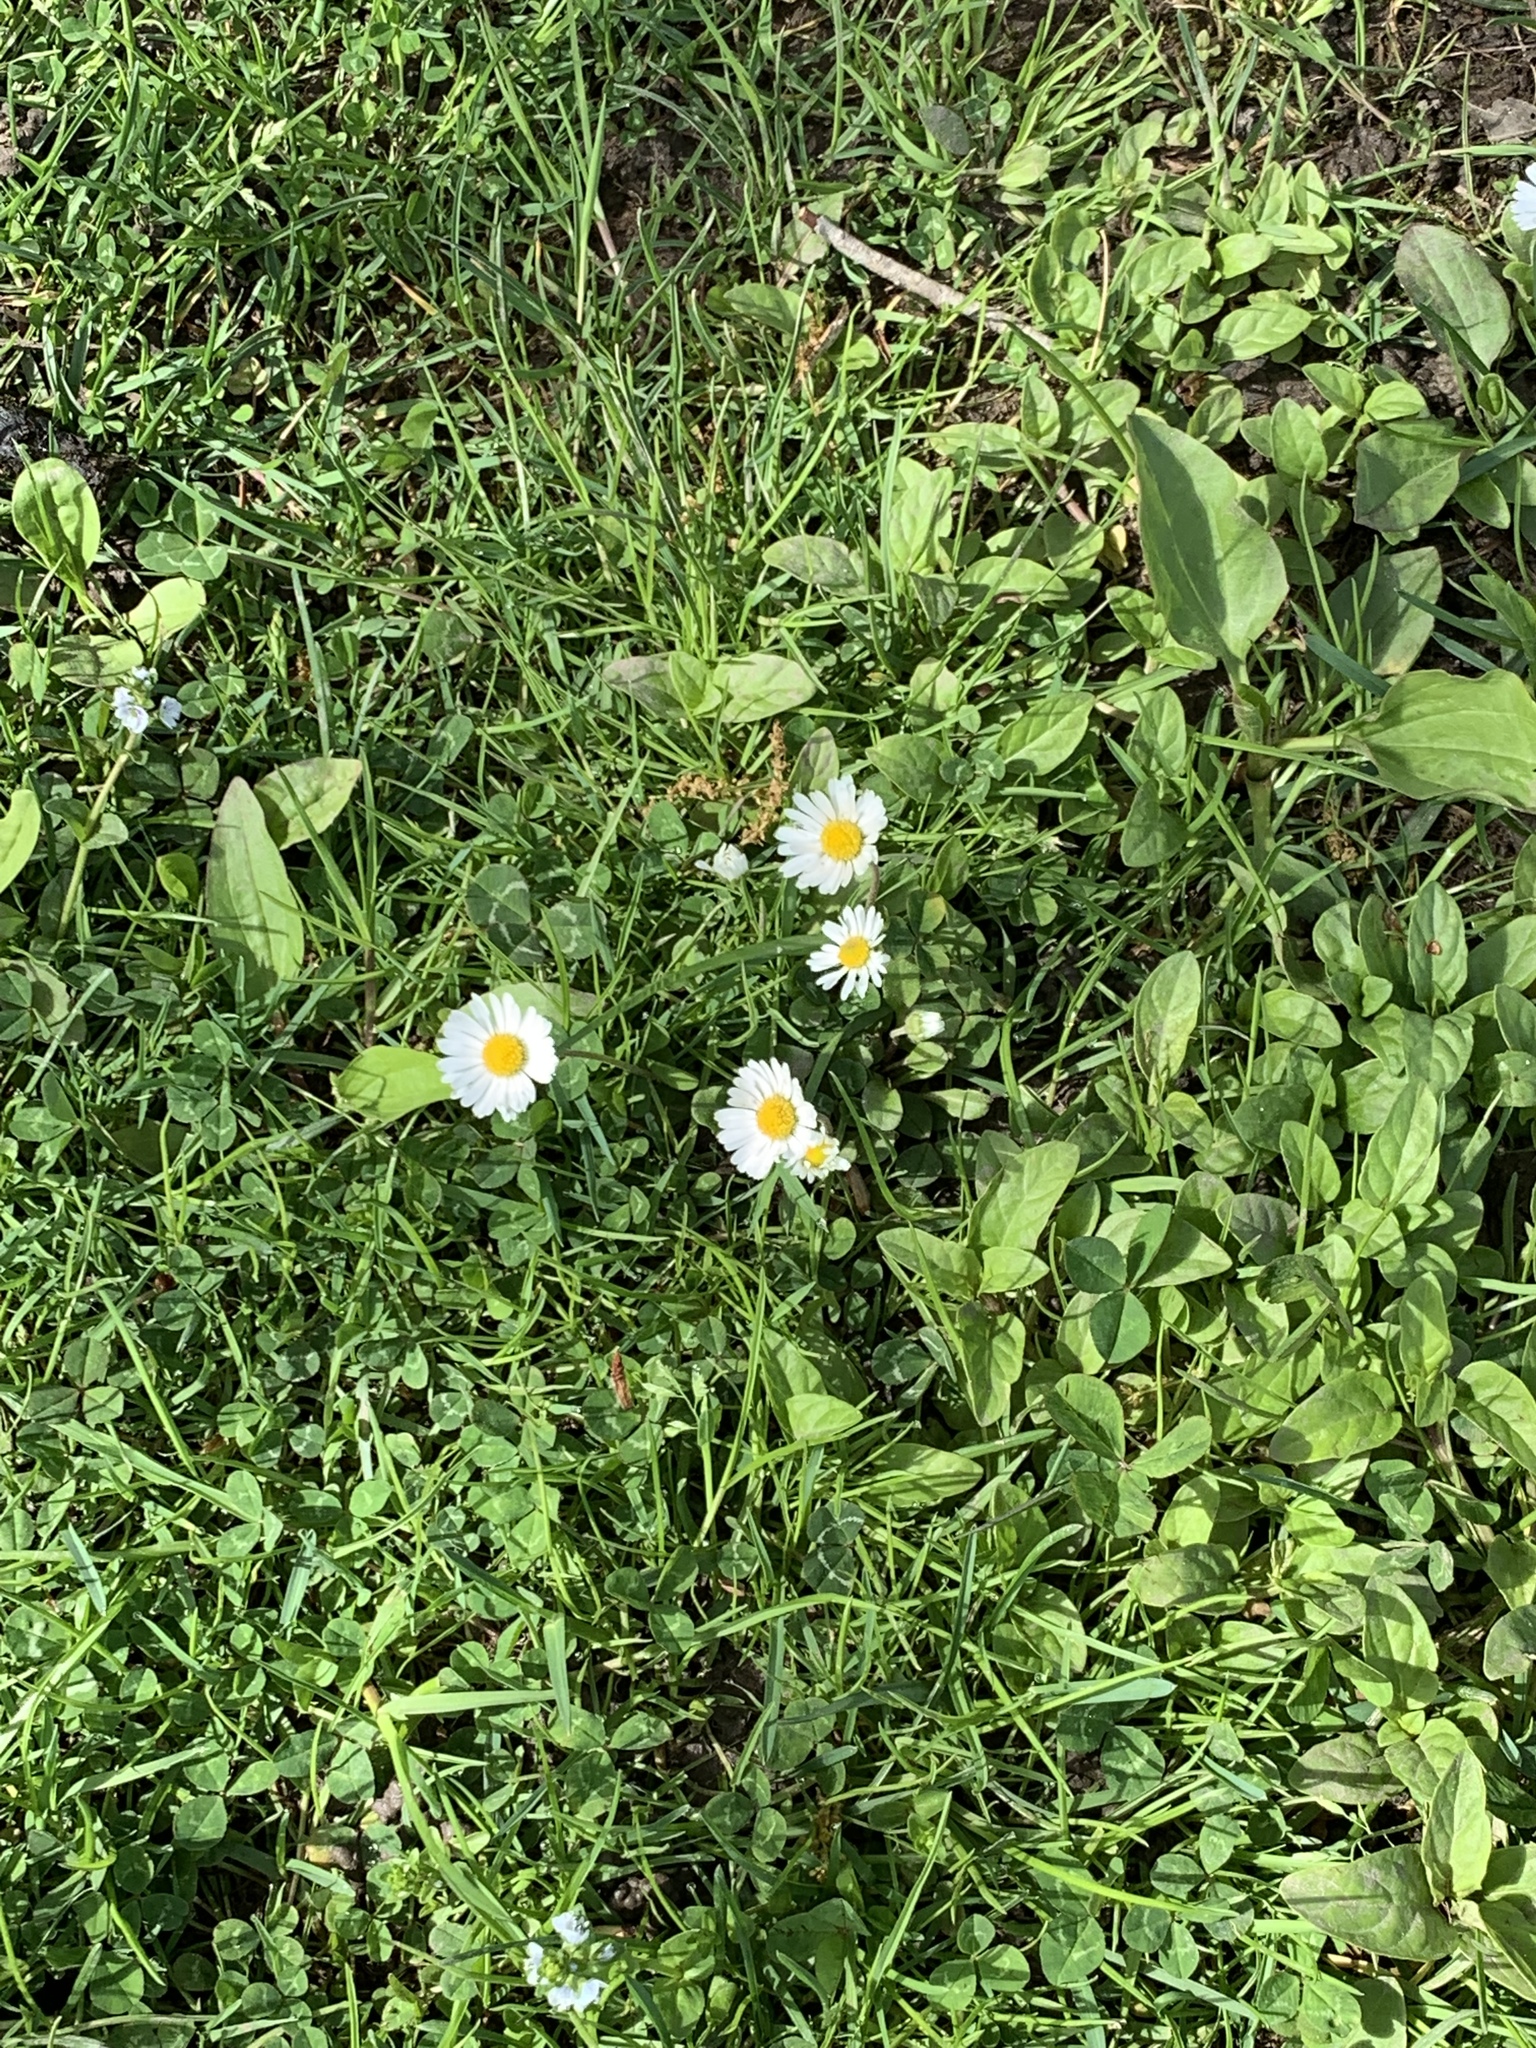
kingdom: Plantae
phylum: Tracheophyta
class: Magnoliopsida
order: Asterales
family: Asteraceae
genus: Bellis
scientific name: Bellis perennis
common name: Lawndaisy
